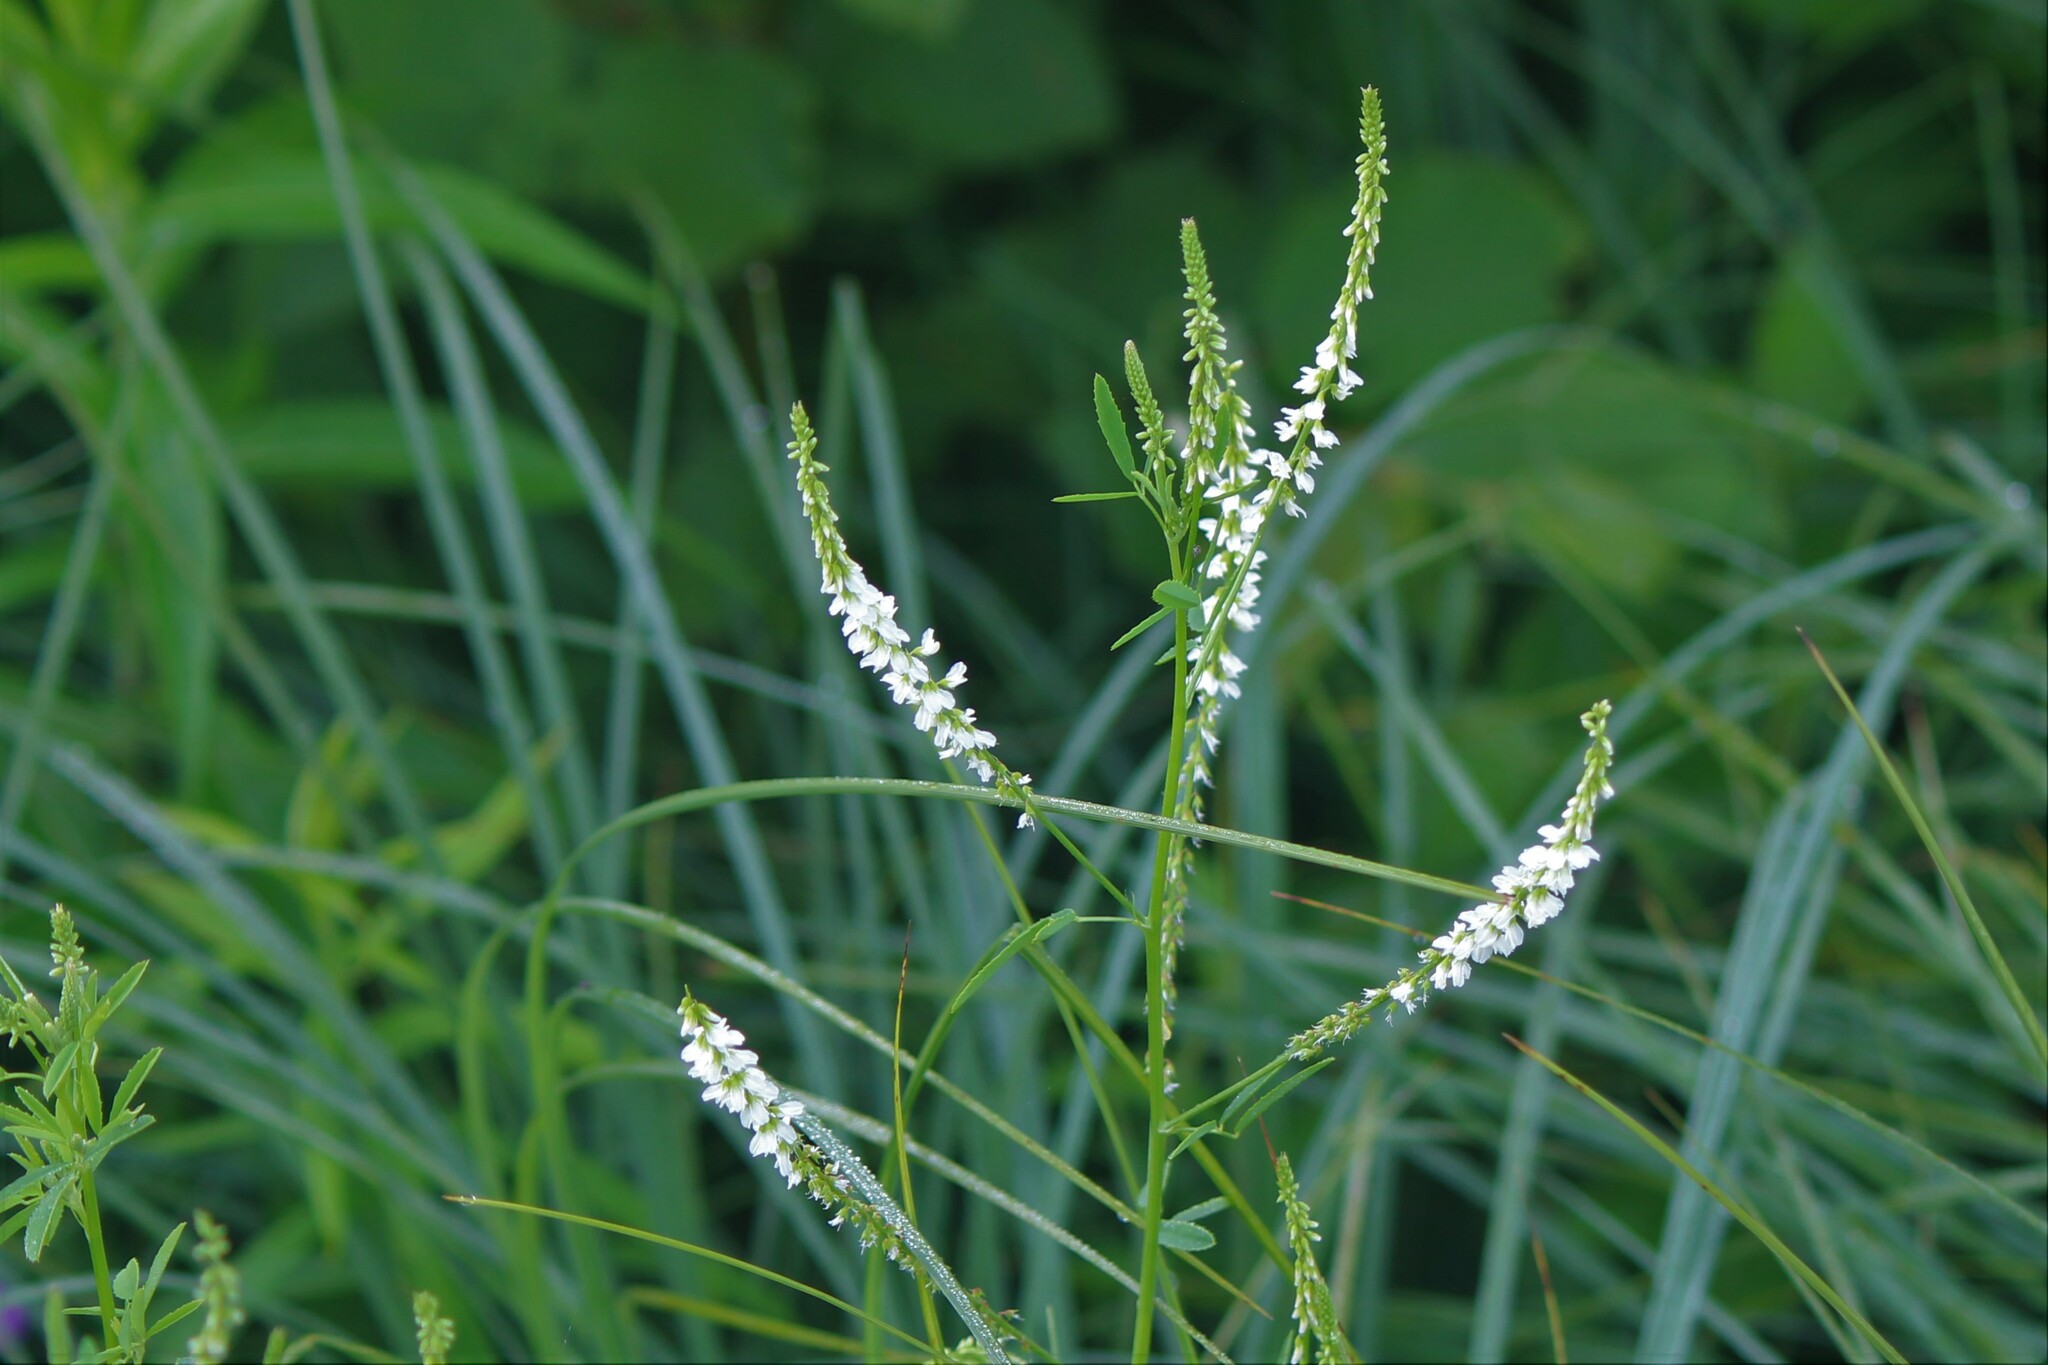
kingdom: Plantae
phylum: Tracheophyta
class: Magnoliopsida
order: Fabales
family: Fabaceae
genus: Melilotus
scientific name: Melilotus albus
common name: White melilot
